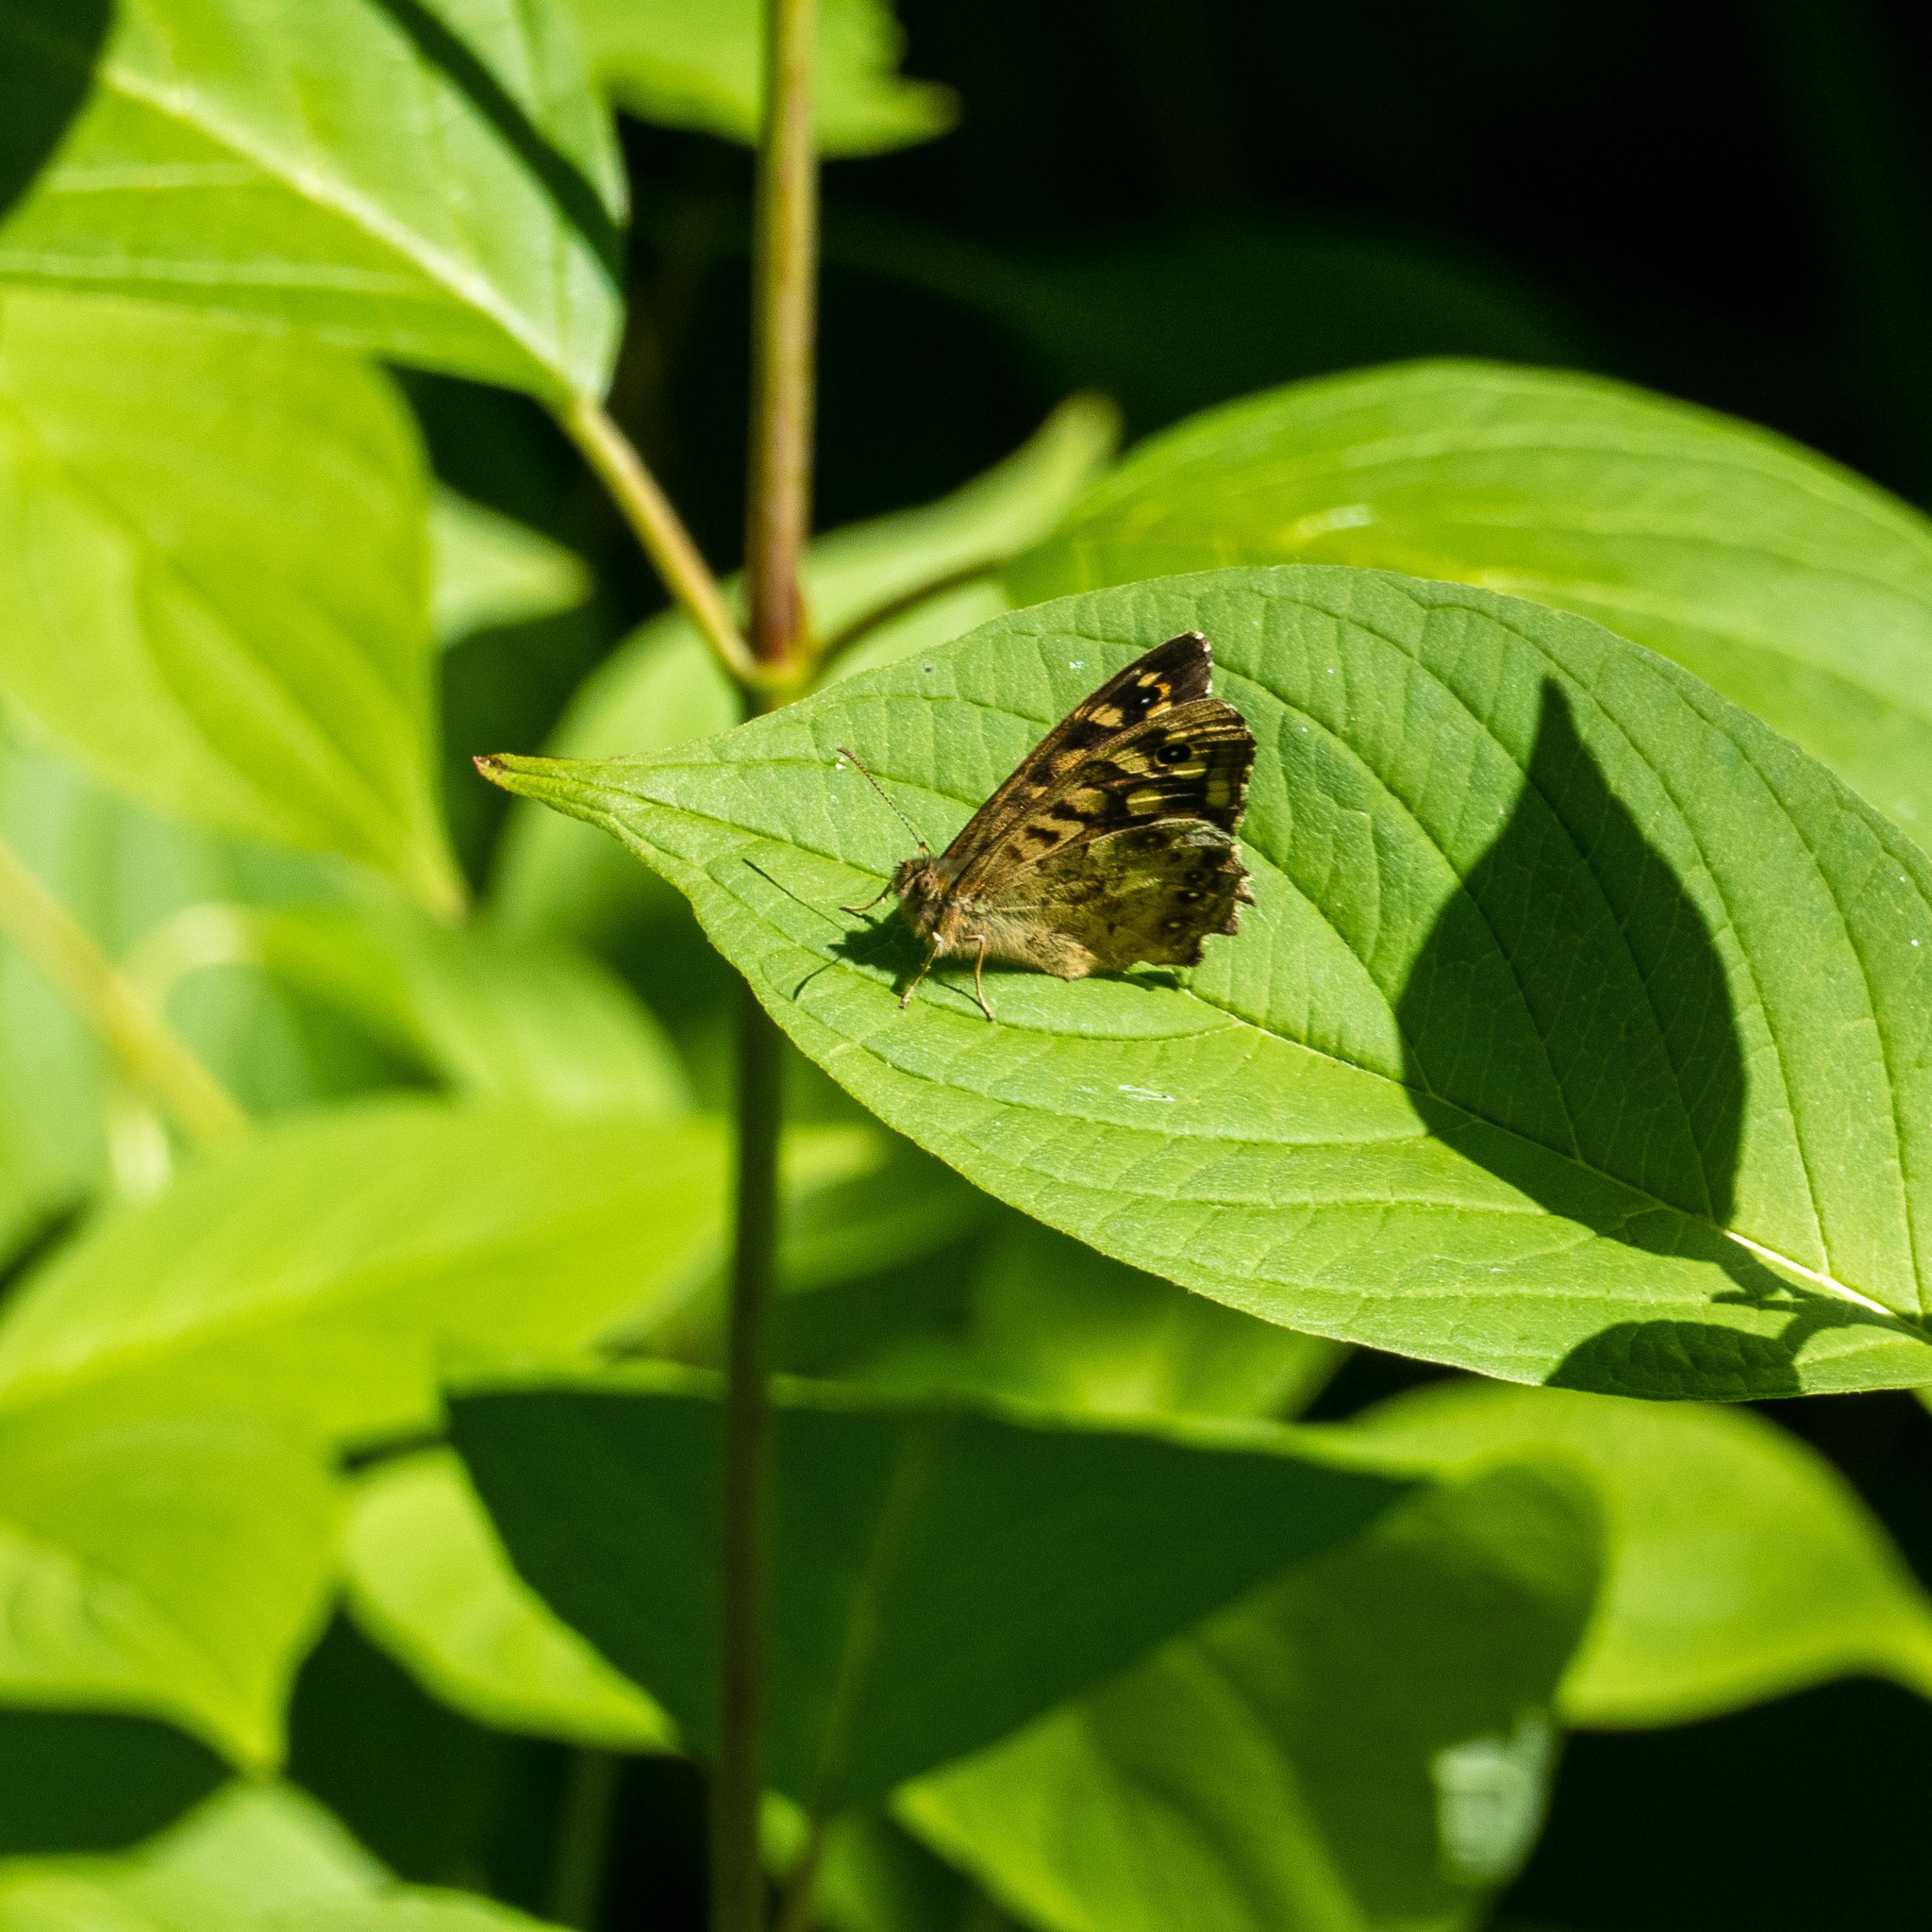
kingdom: Animalia
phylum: Arthropoda
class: Insecta
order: Lepidoptera
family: Nymphalidae
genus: Pararge
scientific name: Pararge aegeria
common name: Speckled wood
